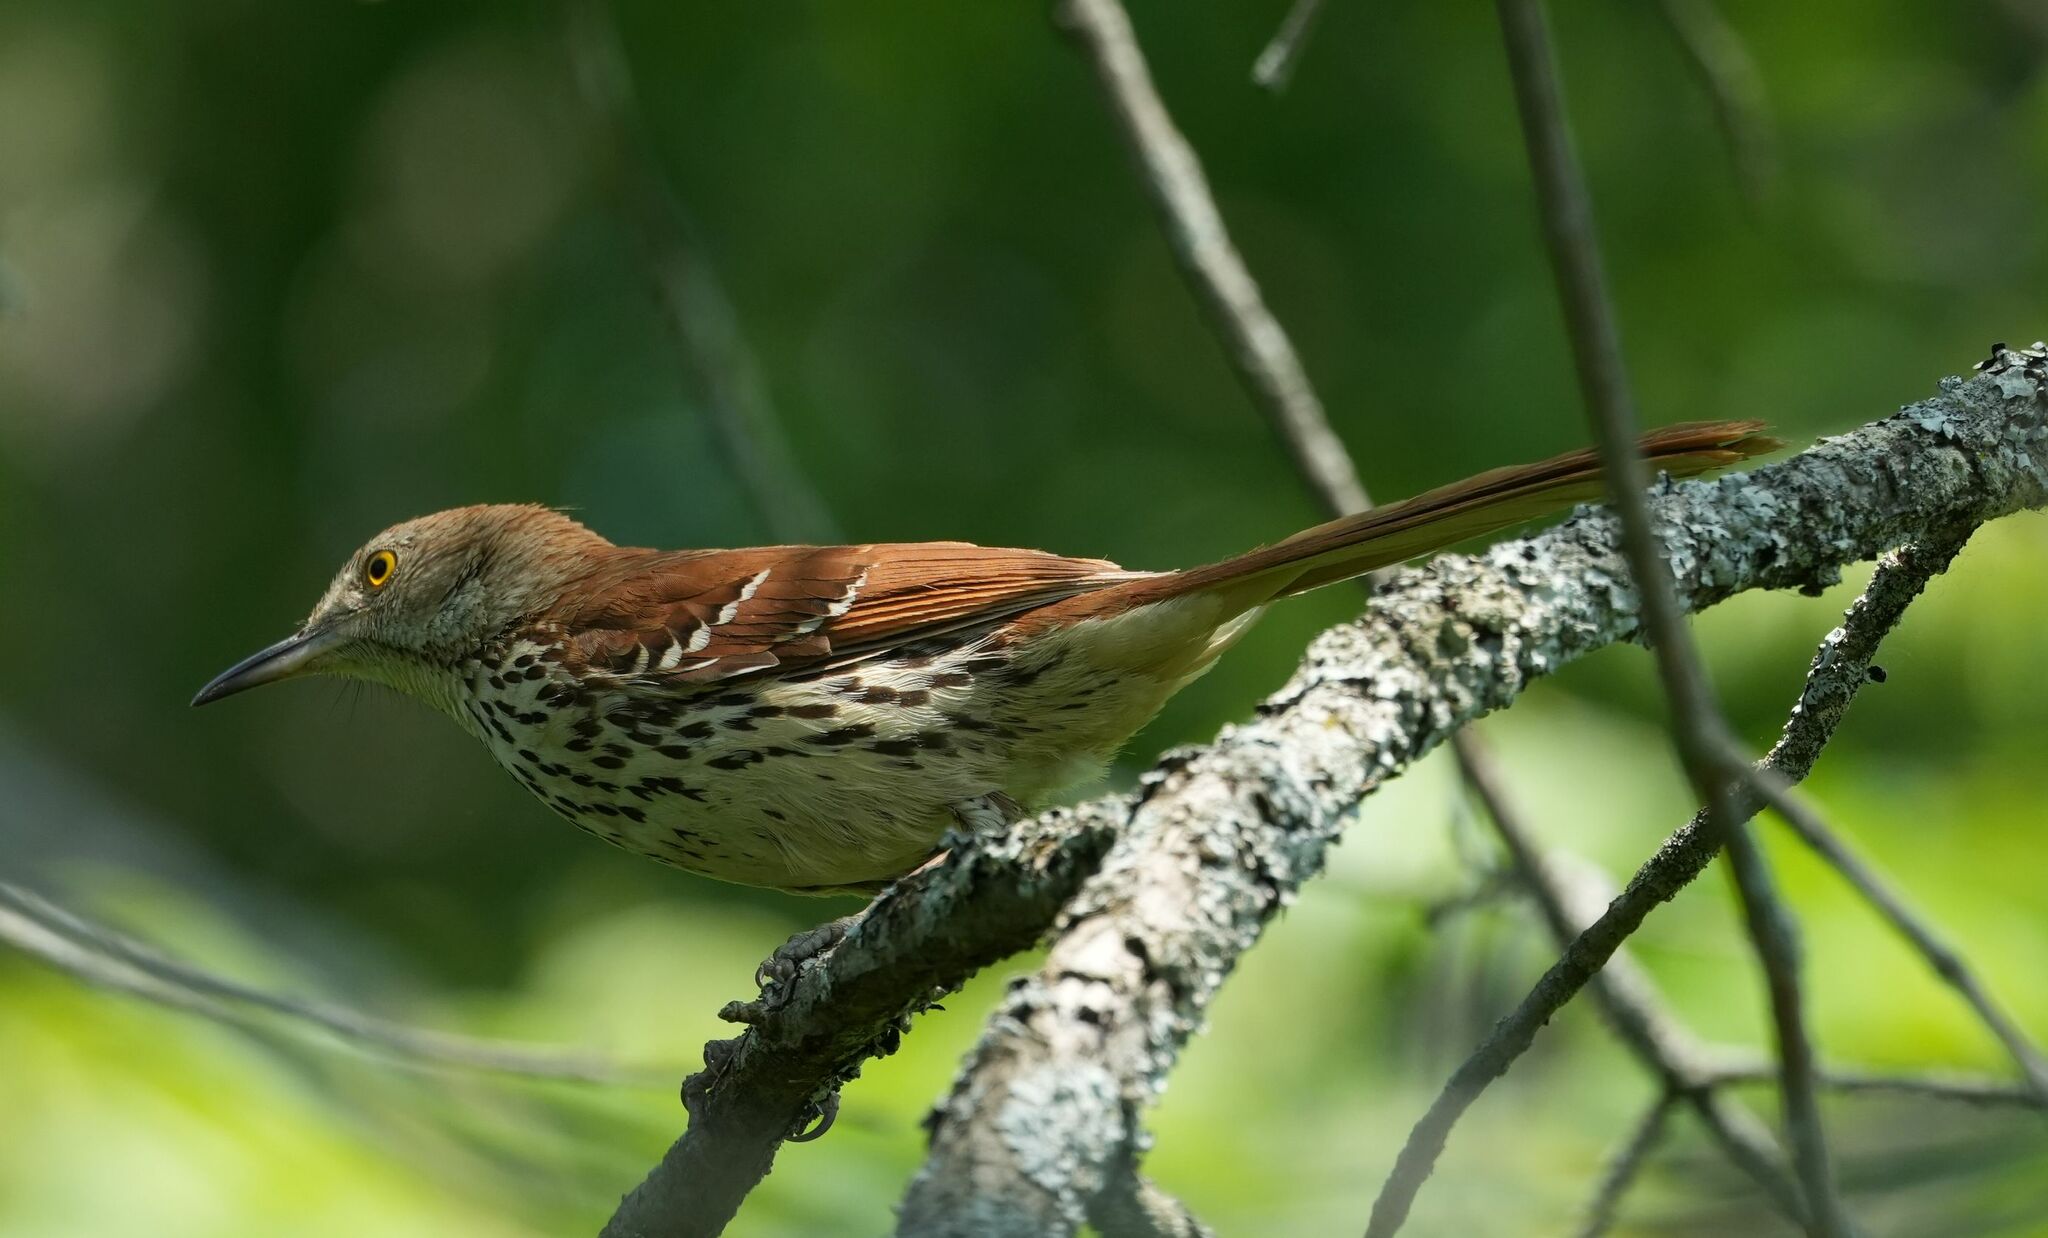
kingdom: Animalia
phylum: Chordata
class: Aves
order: Passeriformes
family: Mimidae
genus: Toxostoma
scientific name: Toxostoma rufum
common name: Brown thrasher
